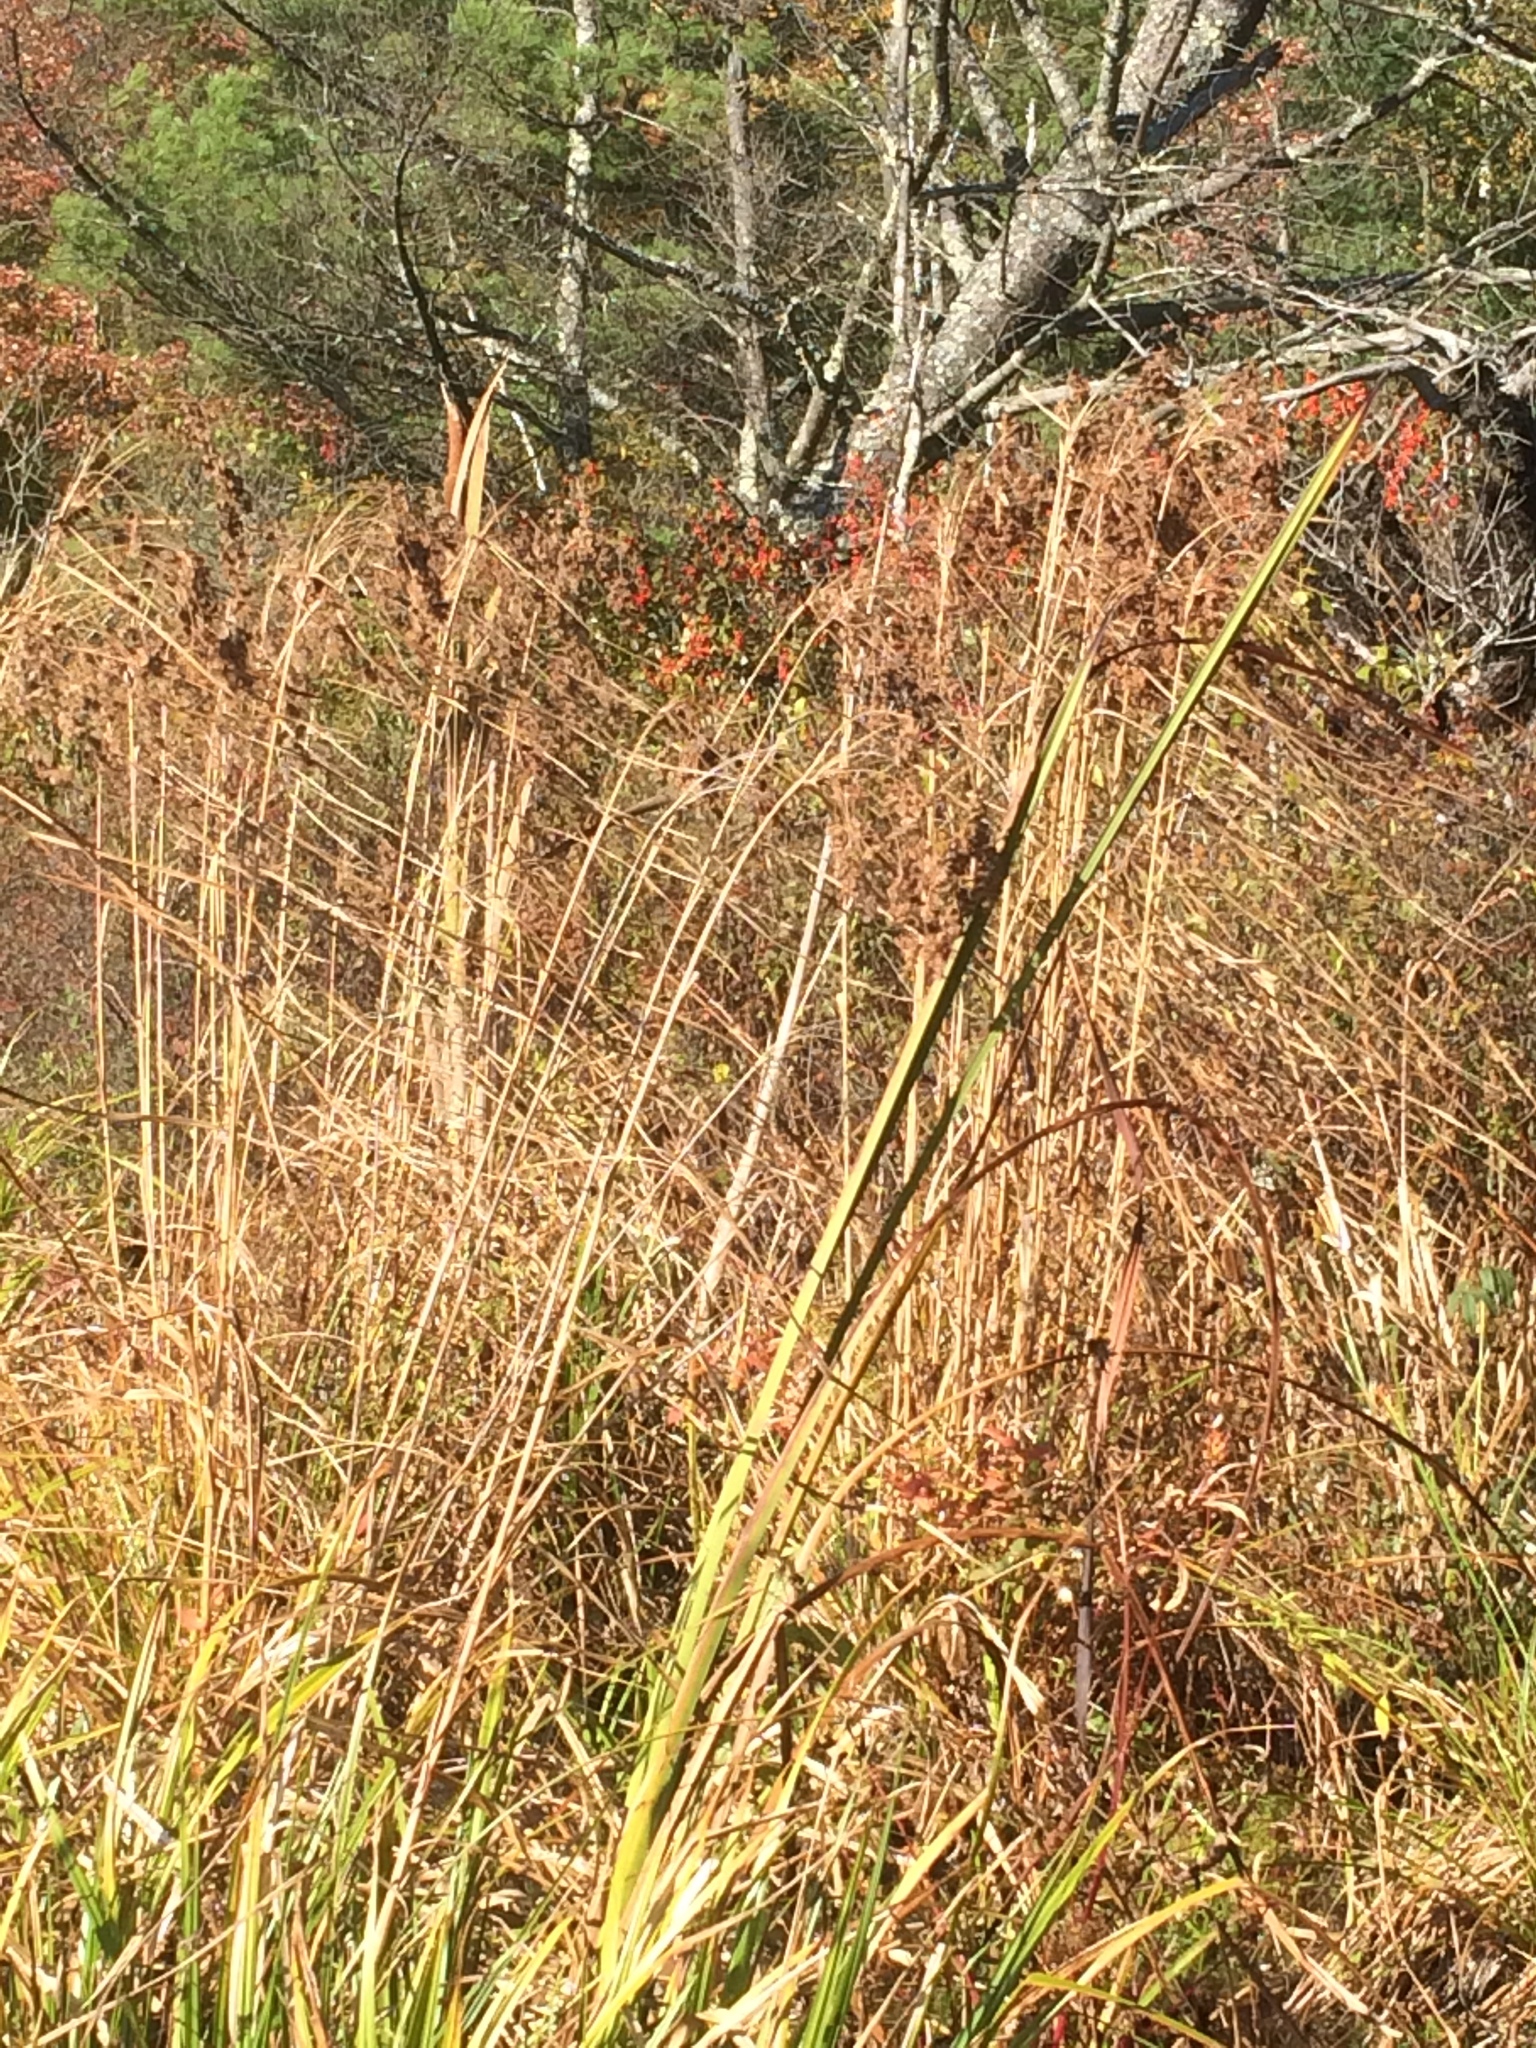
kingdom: Plantae
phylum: Tracheophyta
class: Liliopsida
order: Poales
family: Cyperaceae
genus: Scirpus
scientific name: Scirpus cyperinus
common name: Black-sheathed bulrush
